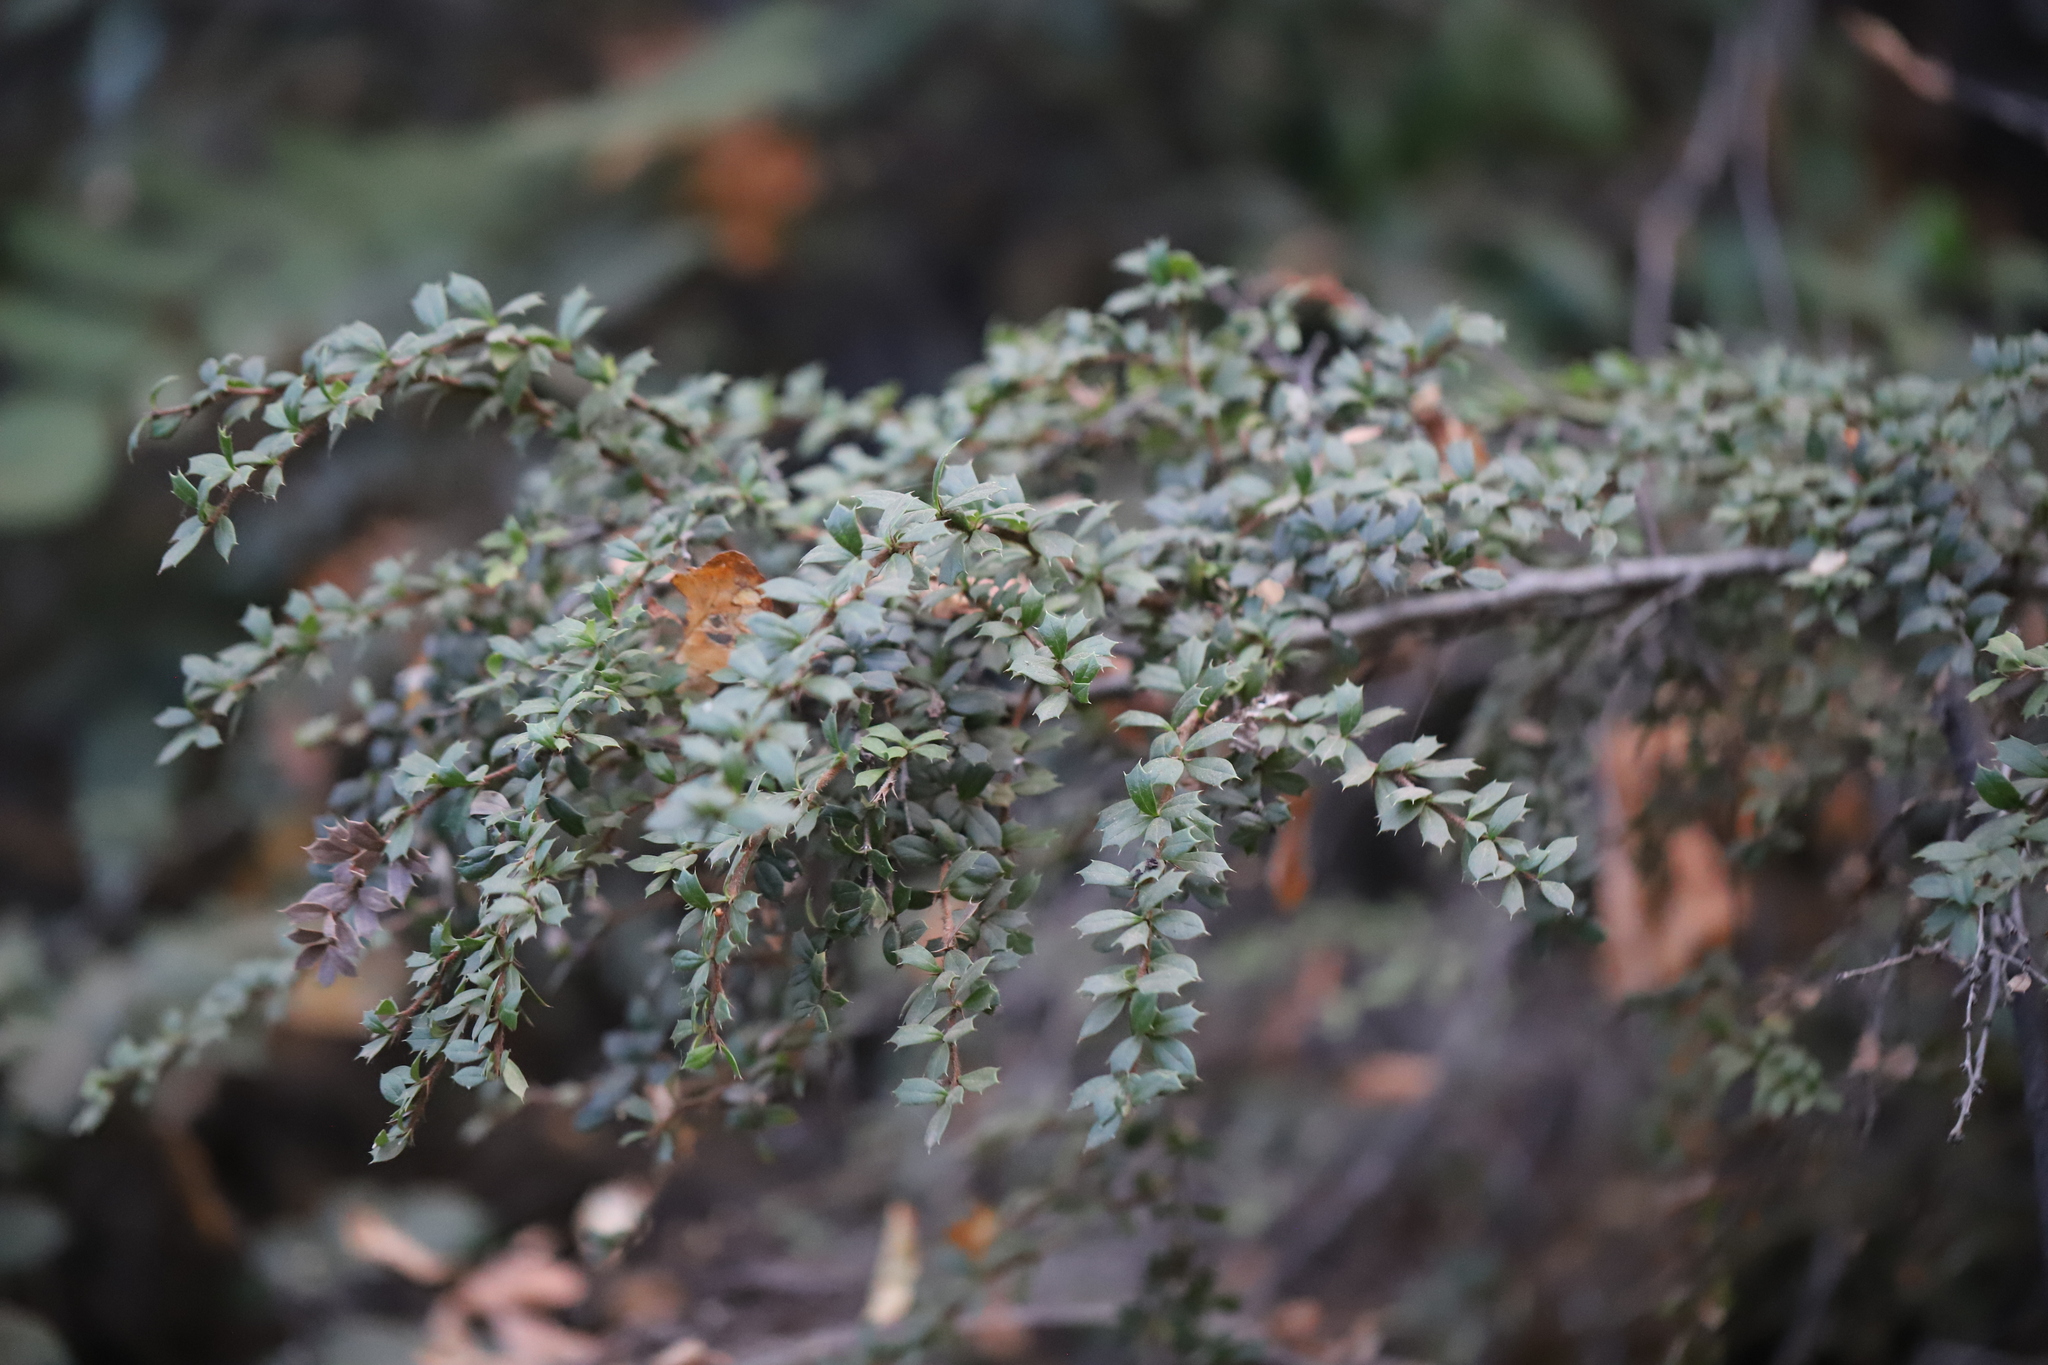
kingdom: Plantae
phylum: Tracheophyta
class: Magnoliopsida
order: Ranunculales
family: Berberidaceae
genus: Berberis
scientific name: Berberis darwinii
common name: Darwin's barberry
